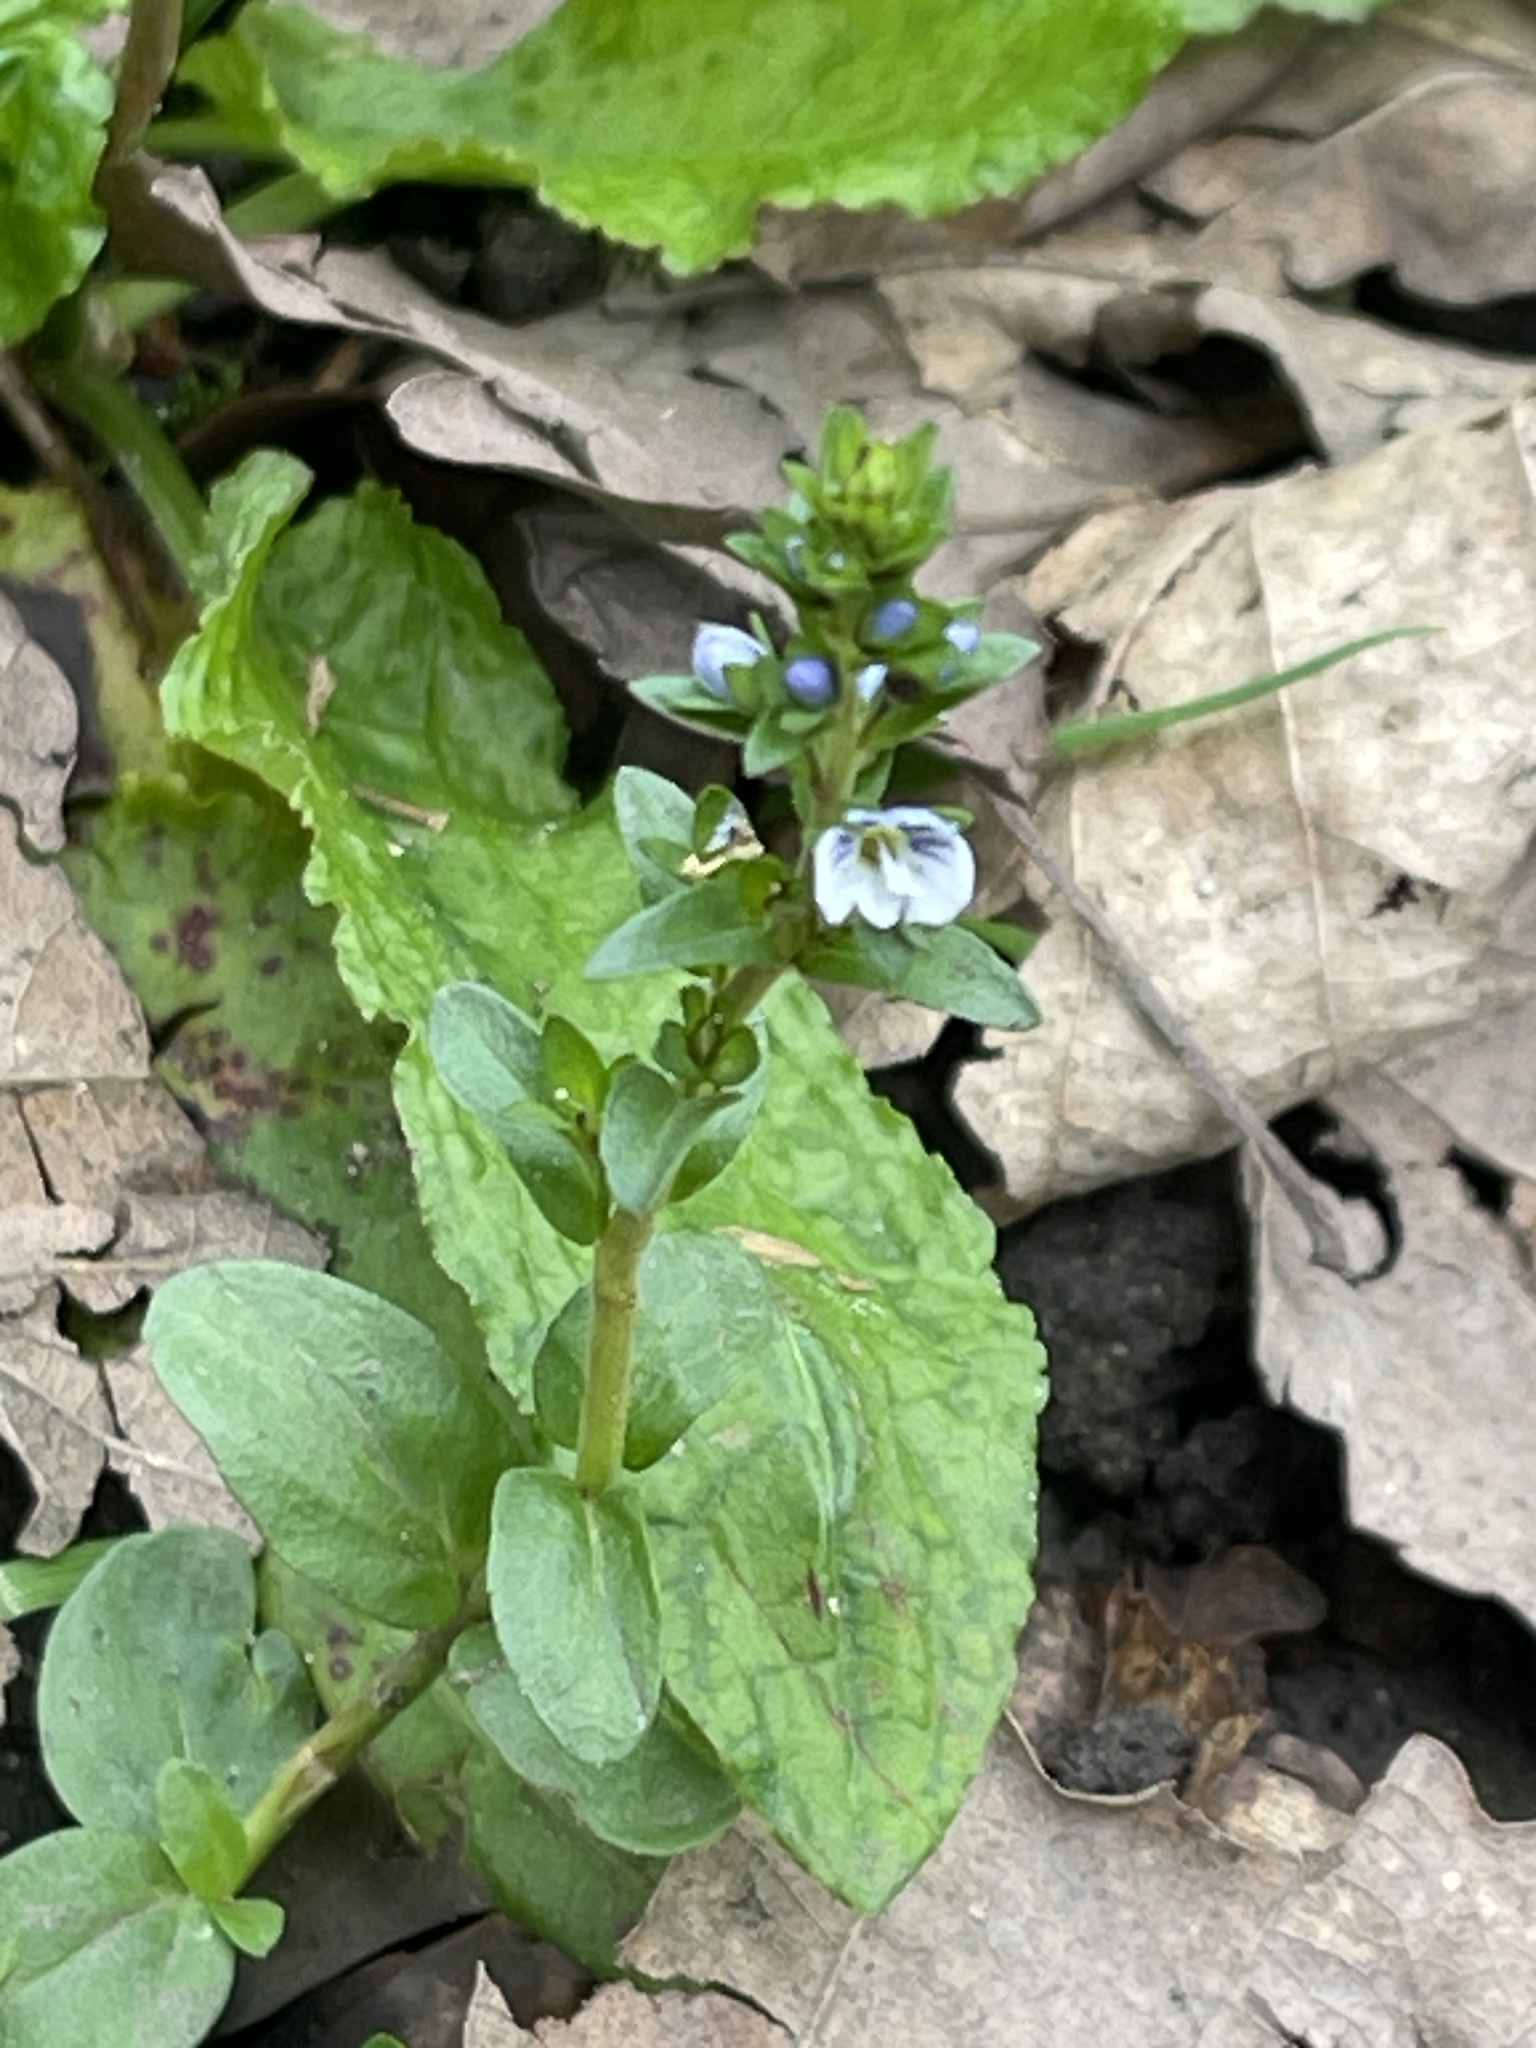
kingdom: Plantae
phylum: Tracheophyta
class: Magnoliopsida
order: Lamiales
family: Plantaginaceae
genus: Veronica
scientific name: Veronica serpyllifolia
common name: Thyme-leaved speedwell
